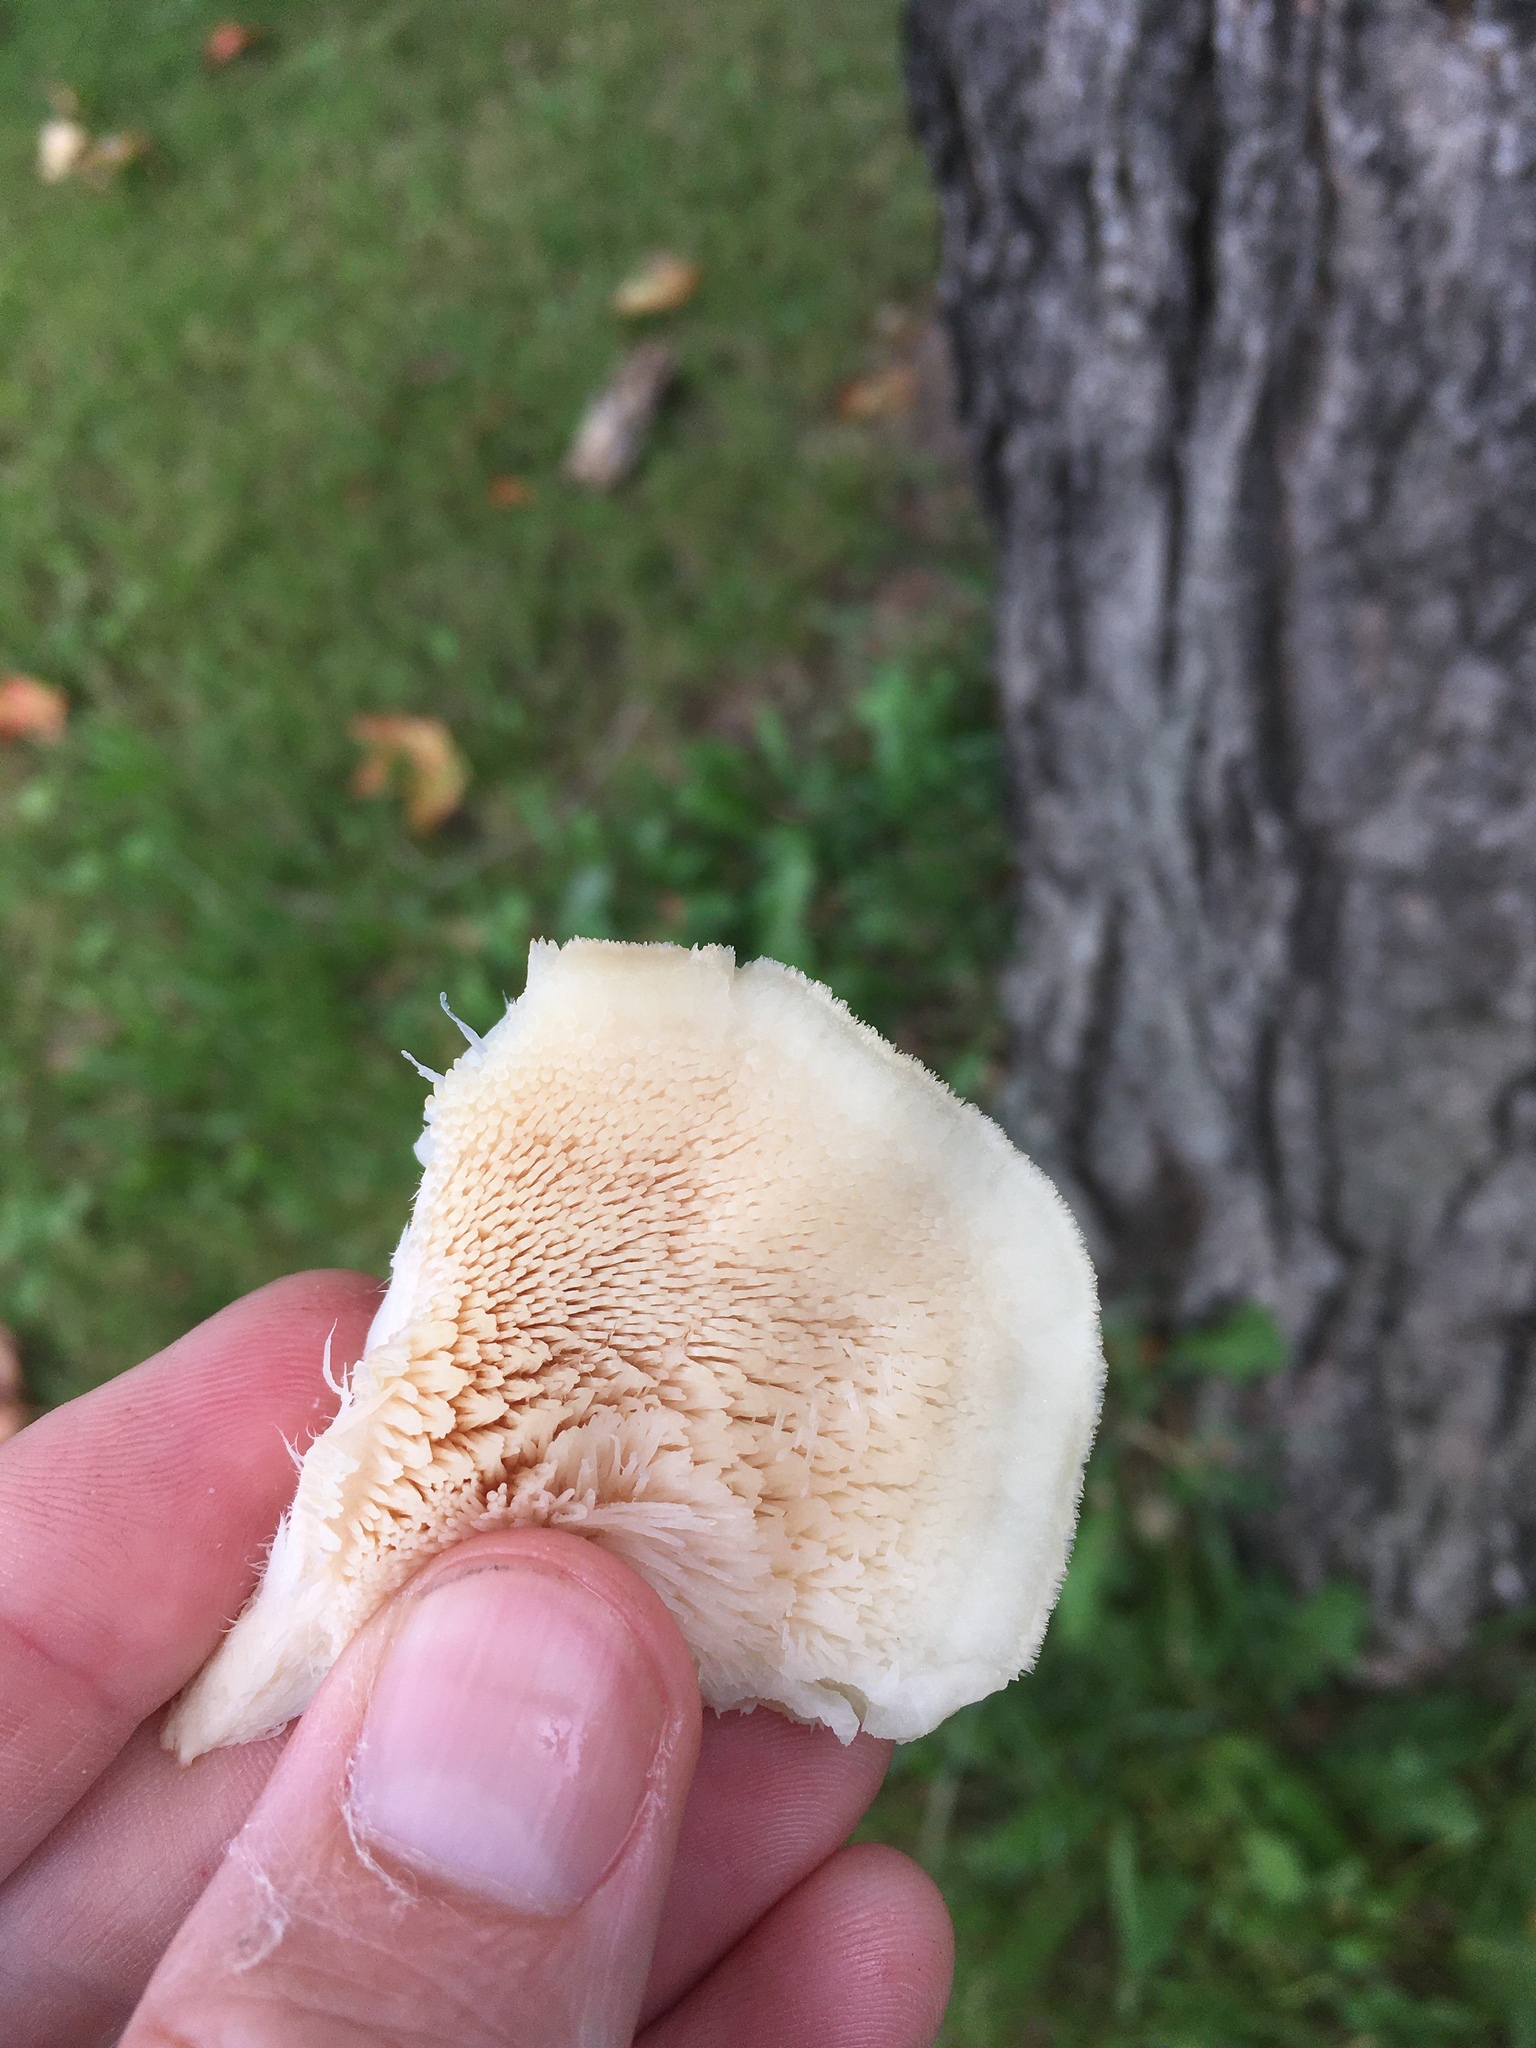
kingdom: Fungi
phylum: Basidiomycota
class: Agaricomycetes
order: Polyporales
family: Meruliaceae
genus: Climacodon
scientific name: Climacodon septentrionalis
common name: Northern tooth
